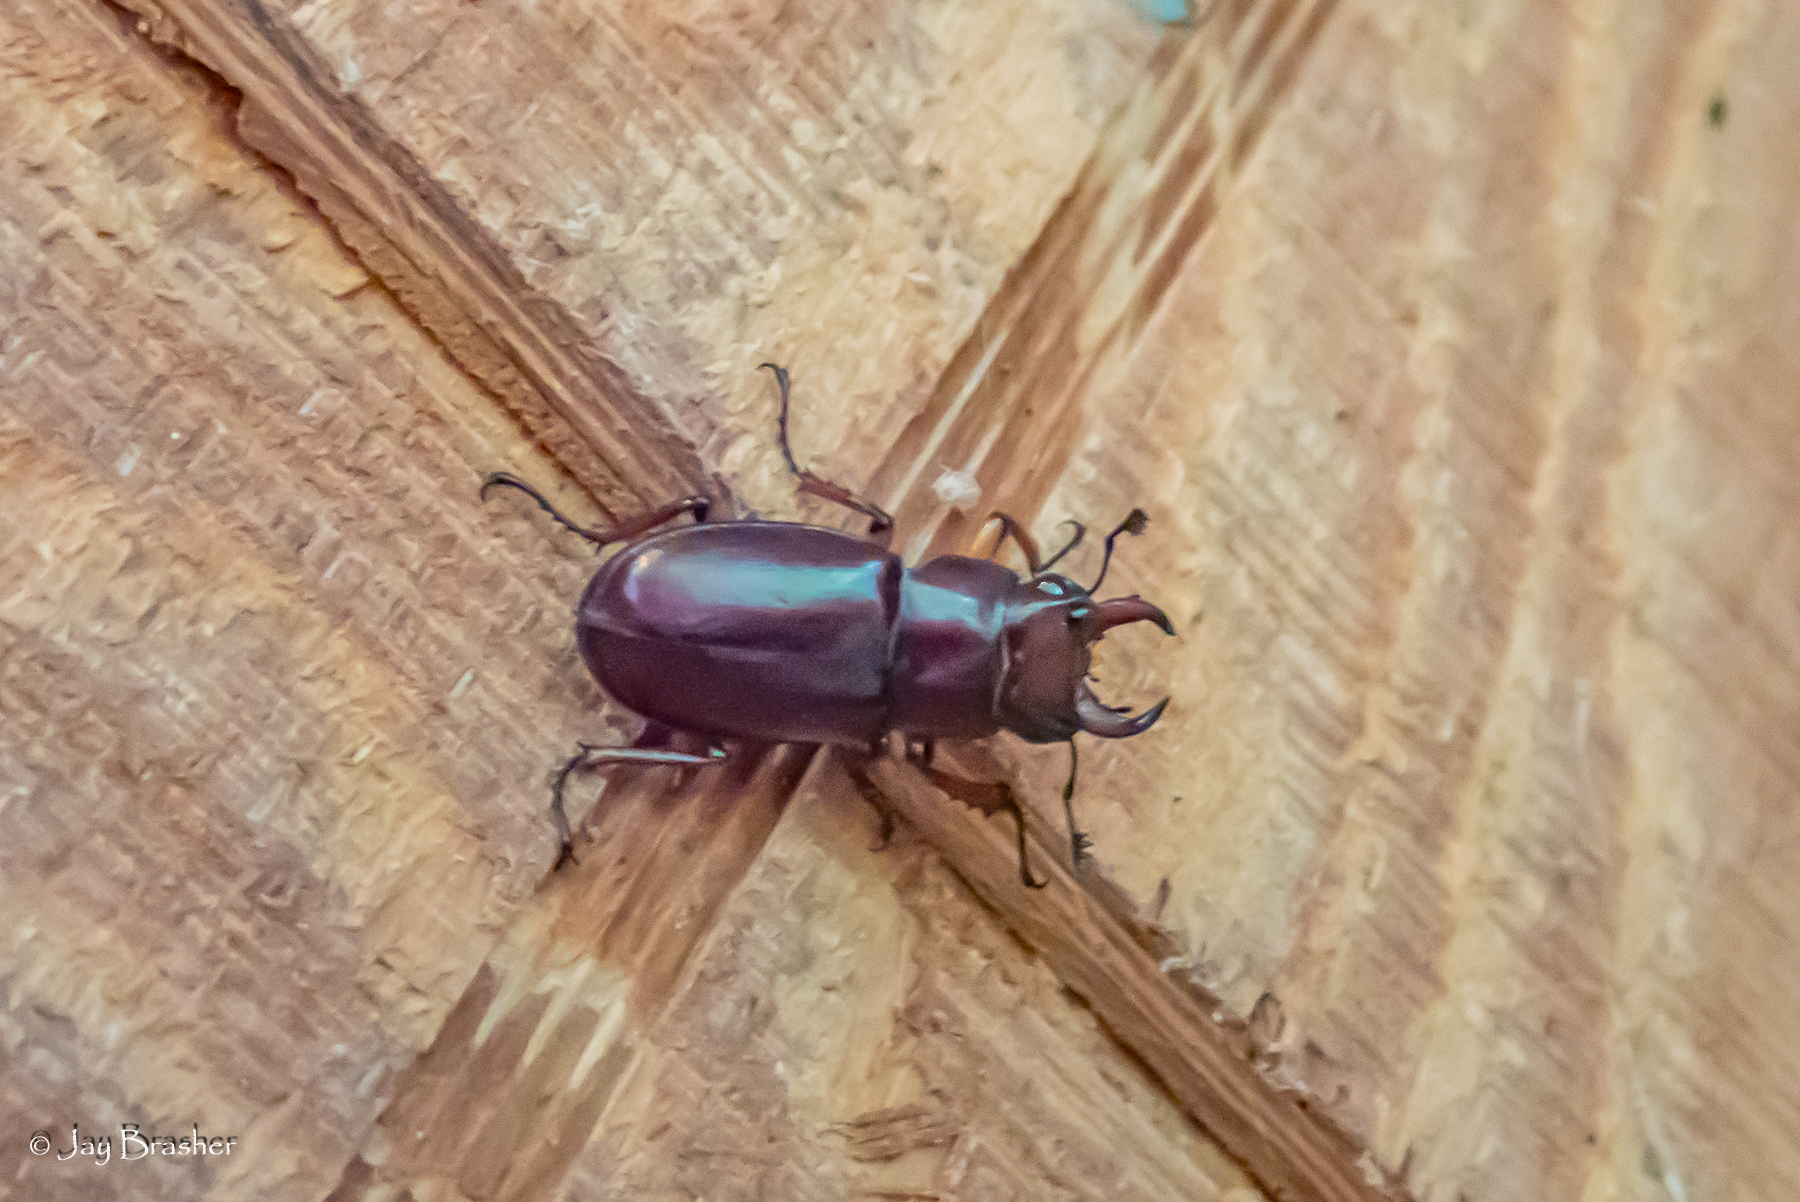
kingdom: Animalia
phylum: Arthropoda
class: Insecta
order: Coleoptera
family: Lucanidae
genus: Lucanus
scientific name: Lucanus capreolus
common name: Stag beetle
